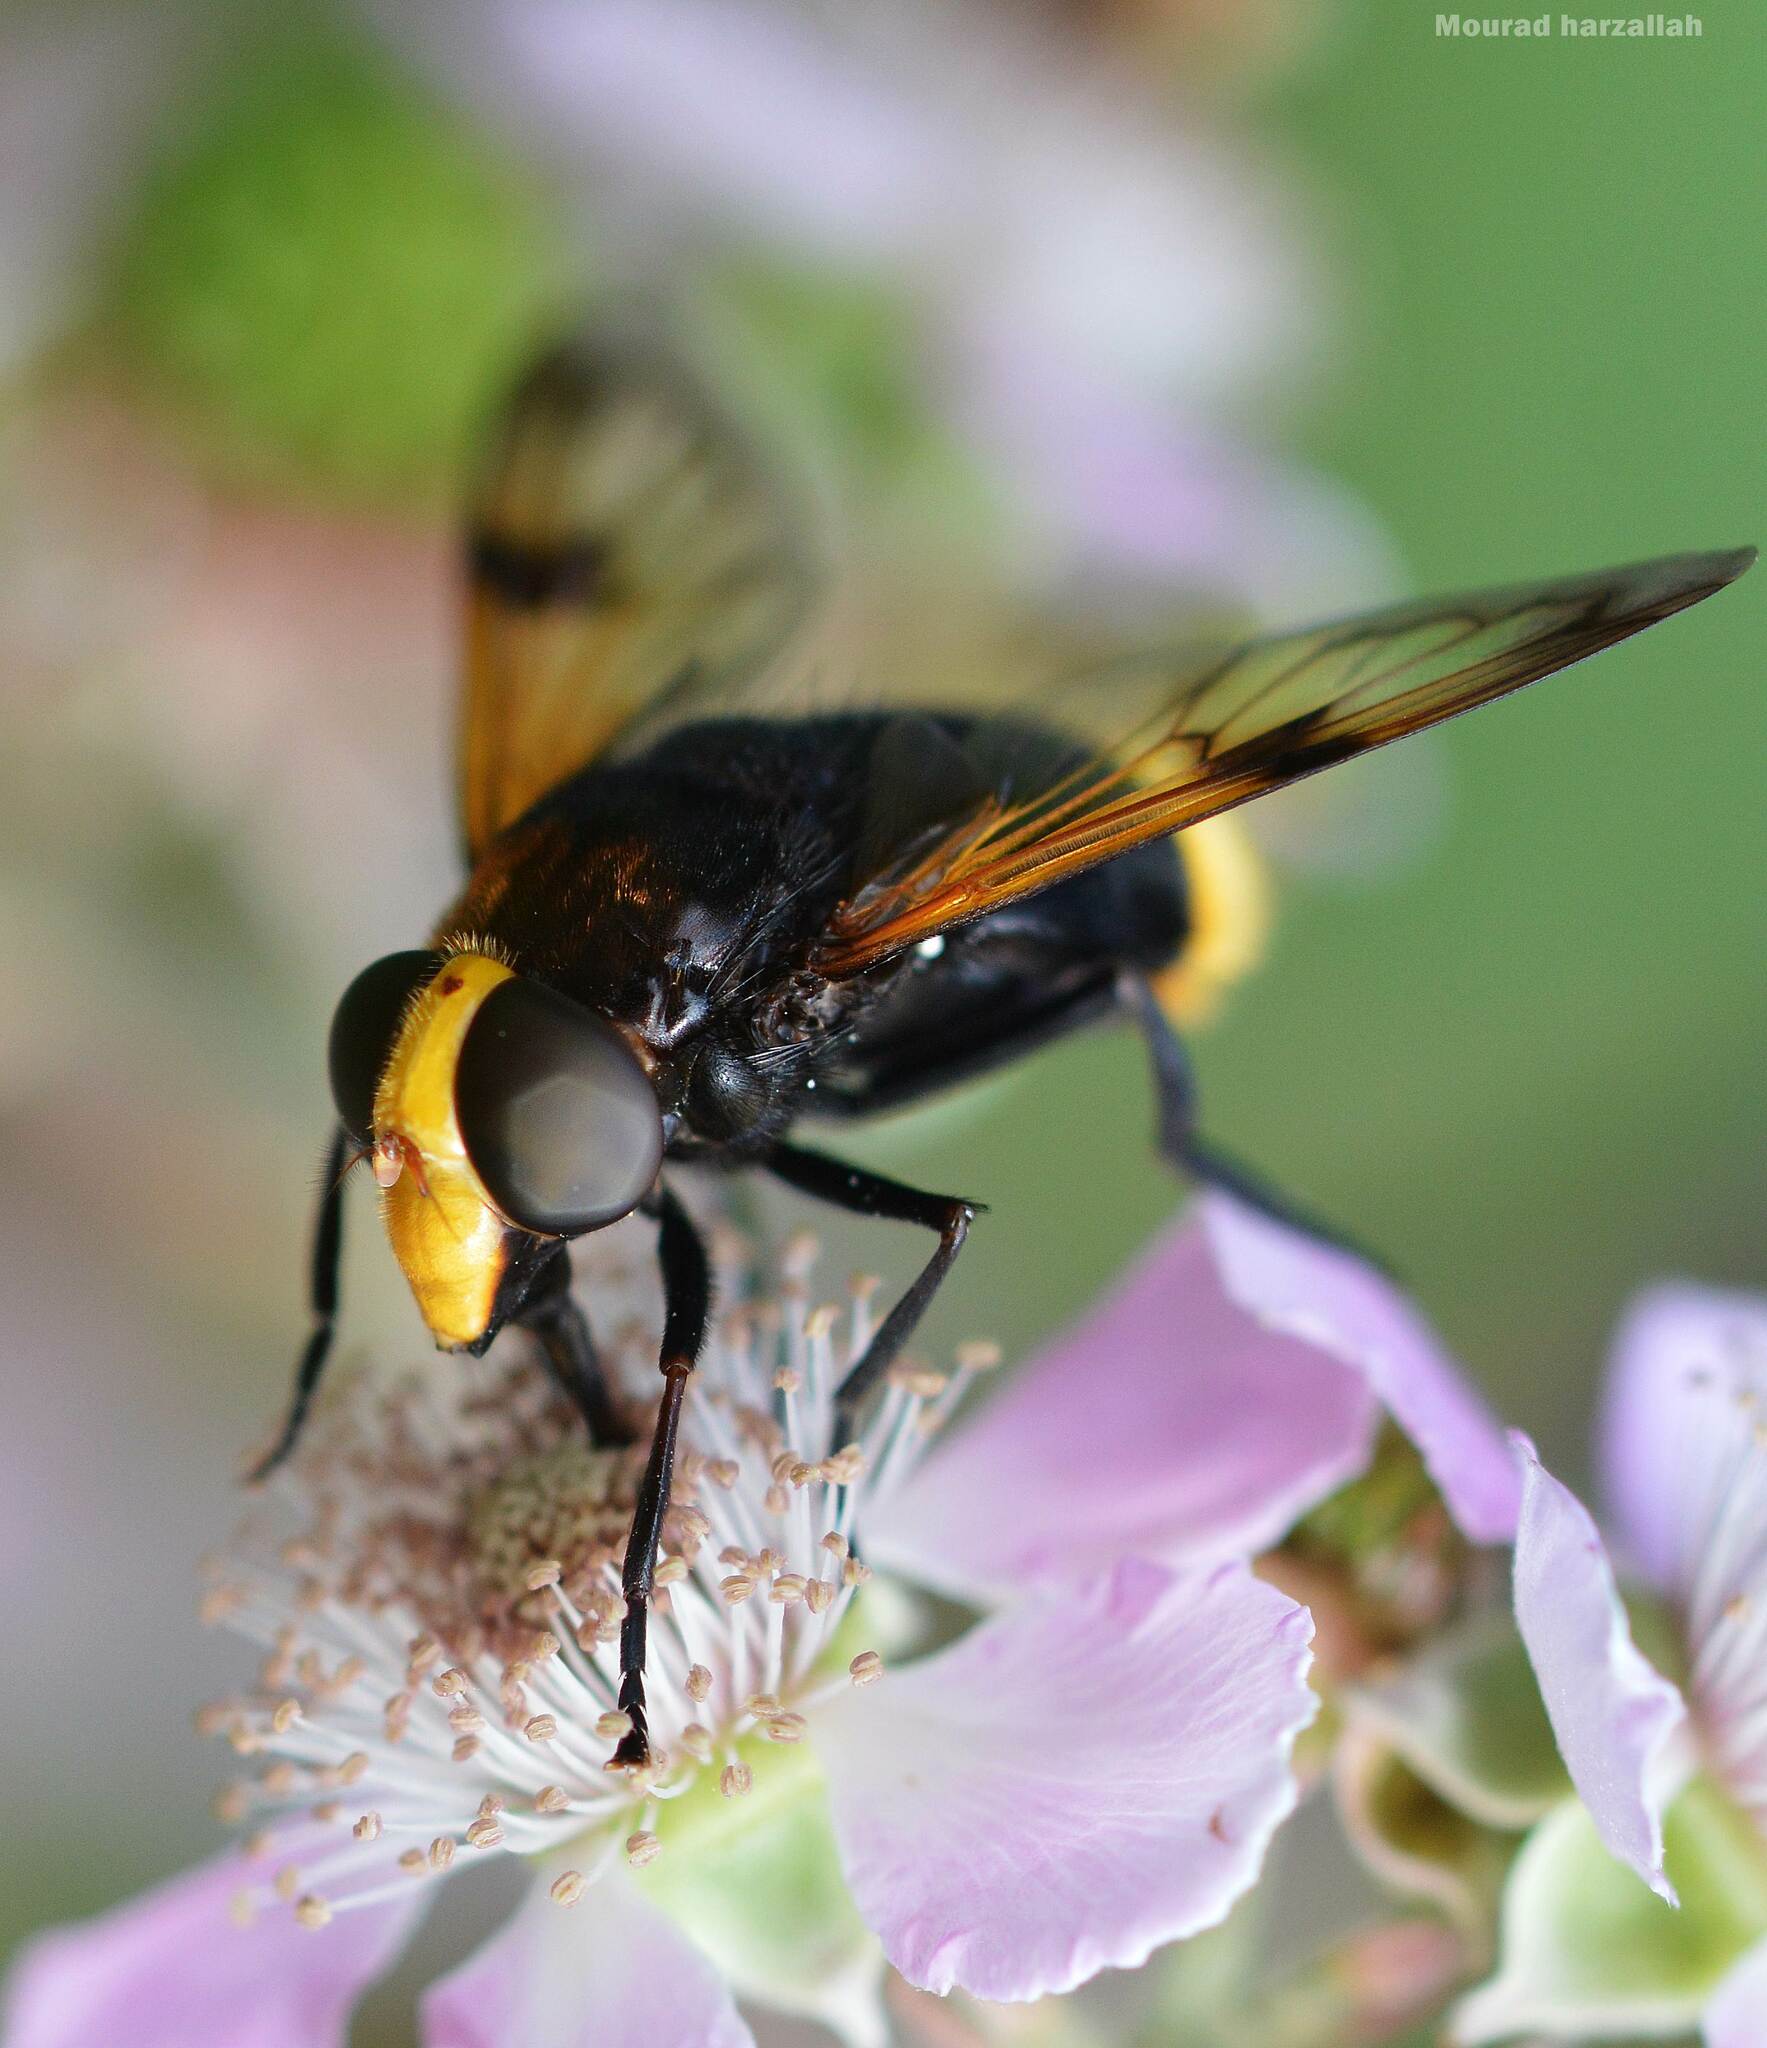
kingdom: Animalia
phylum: Arthropoda
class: Insecta
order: Diptera
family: Syrphidae
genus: Volucella
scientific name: Volucella liquida
